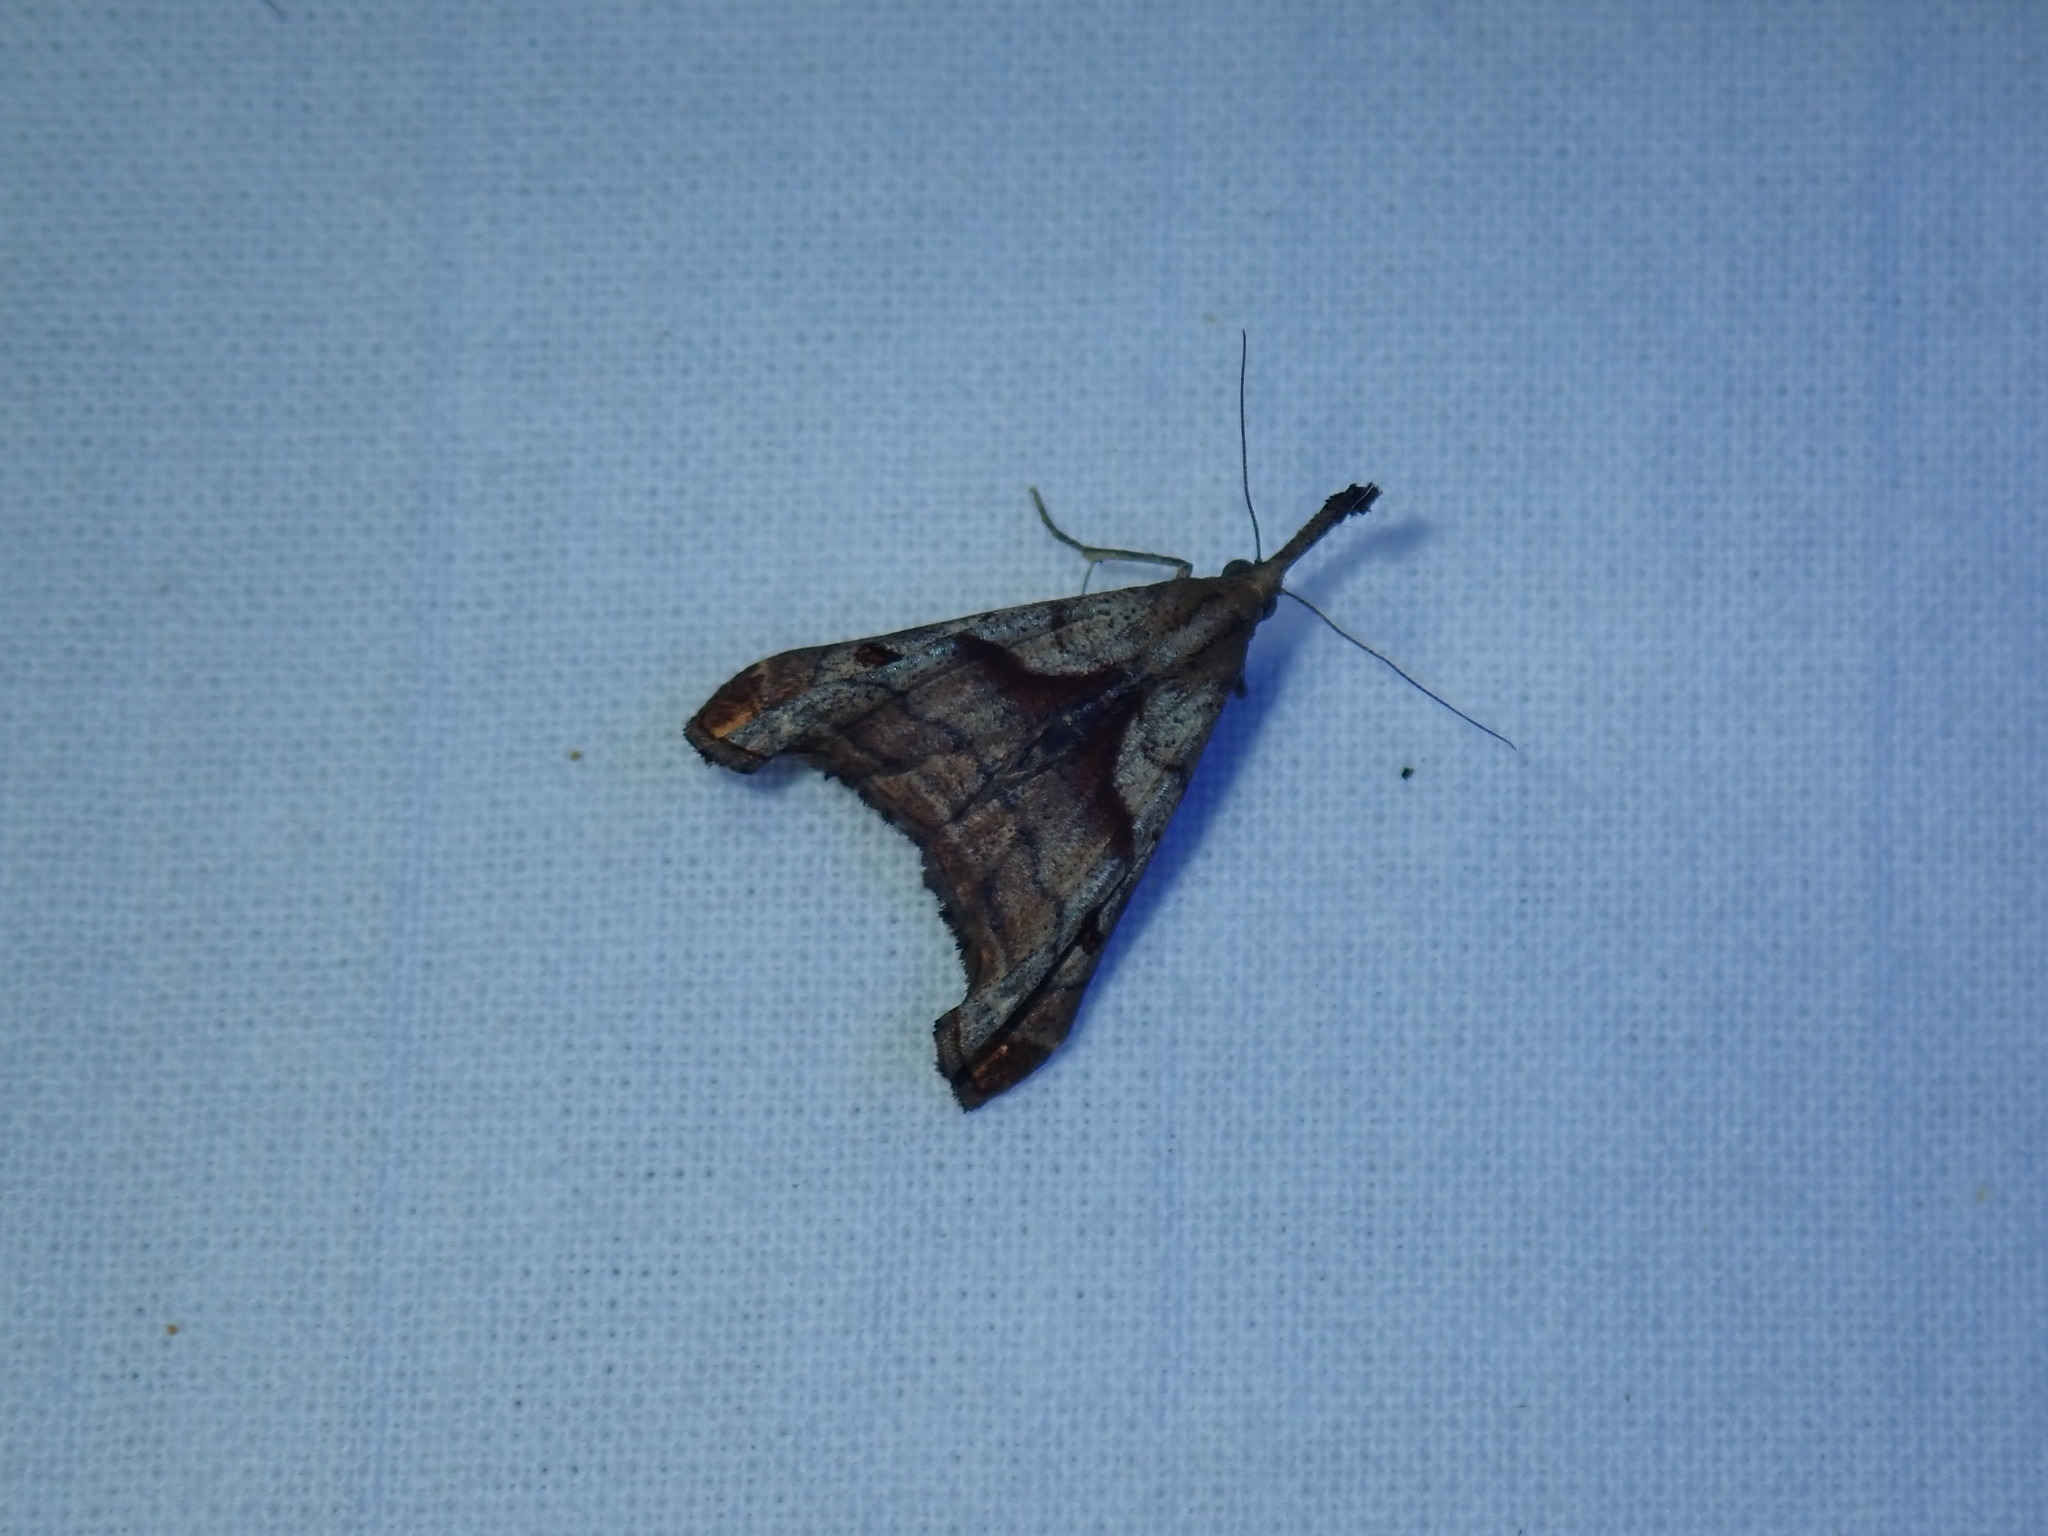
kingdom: Animalia
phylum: Arthropoda
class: Insecta
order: Lepidoptera
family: Erebidae
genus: Palthis
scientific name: Palthis angulalis
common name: Dark-spotted palthis moth
